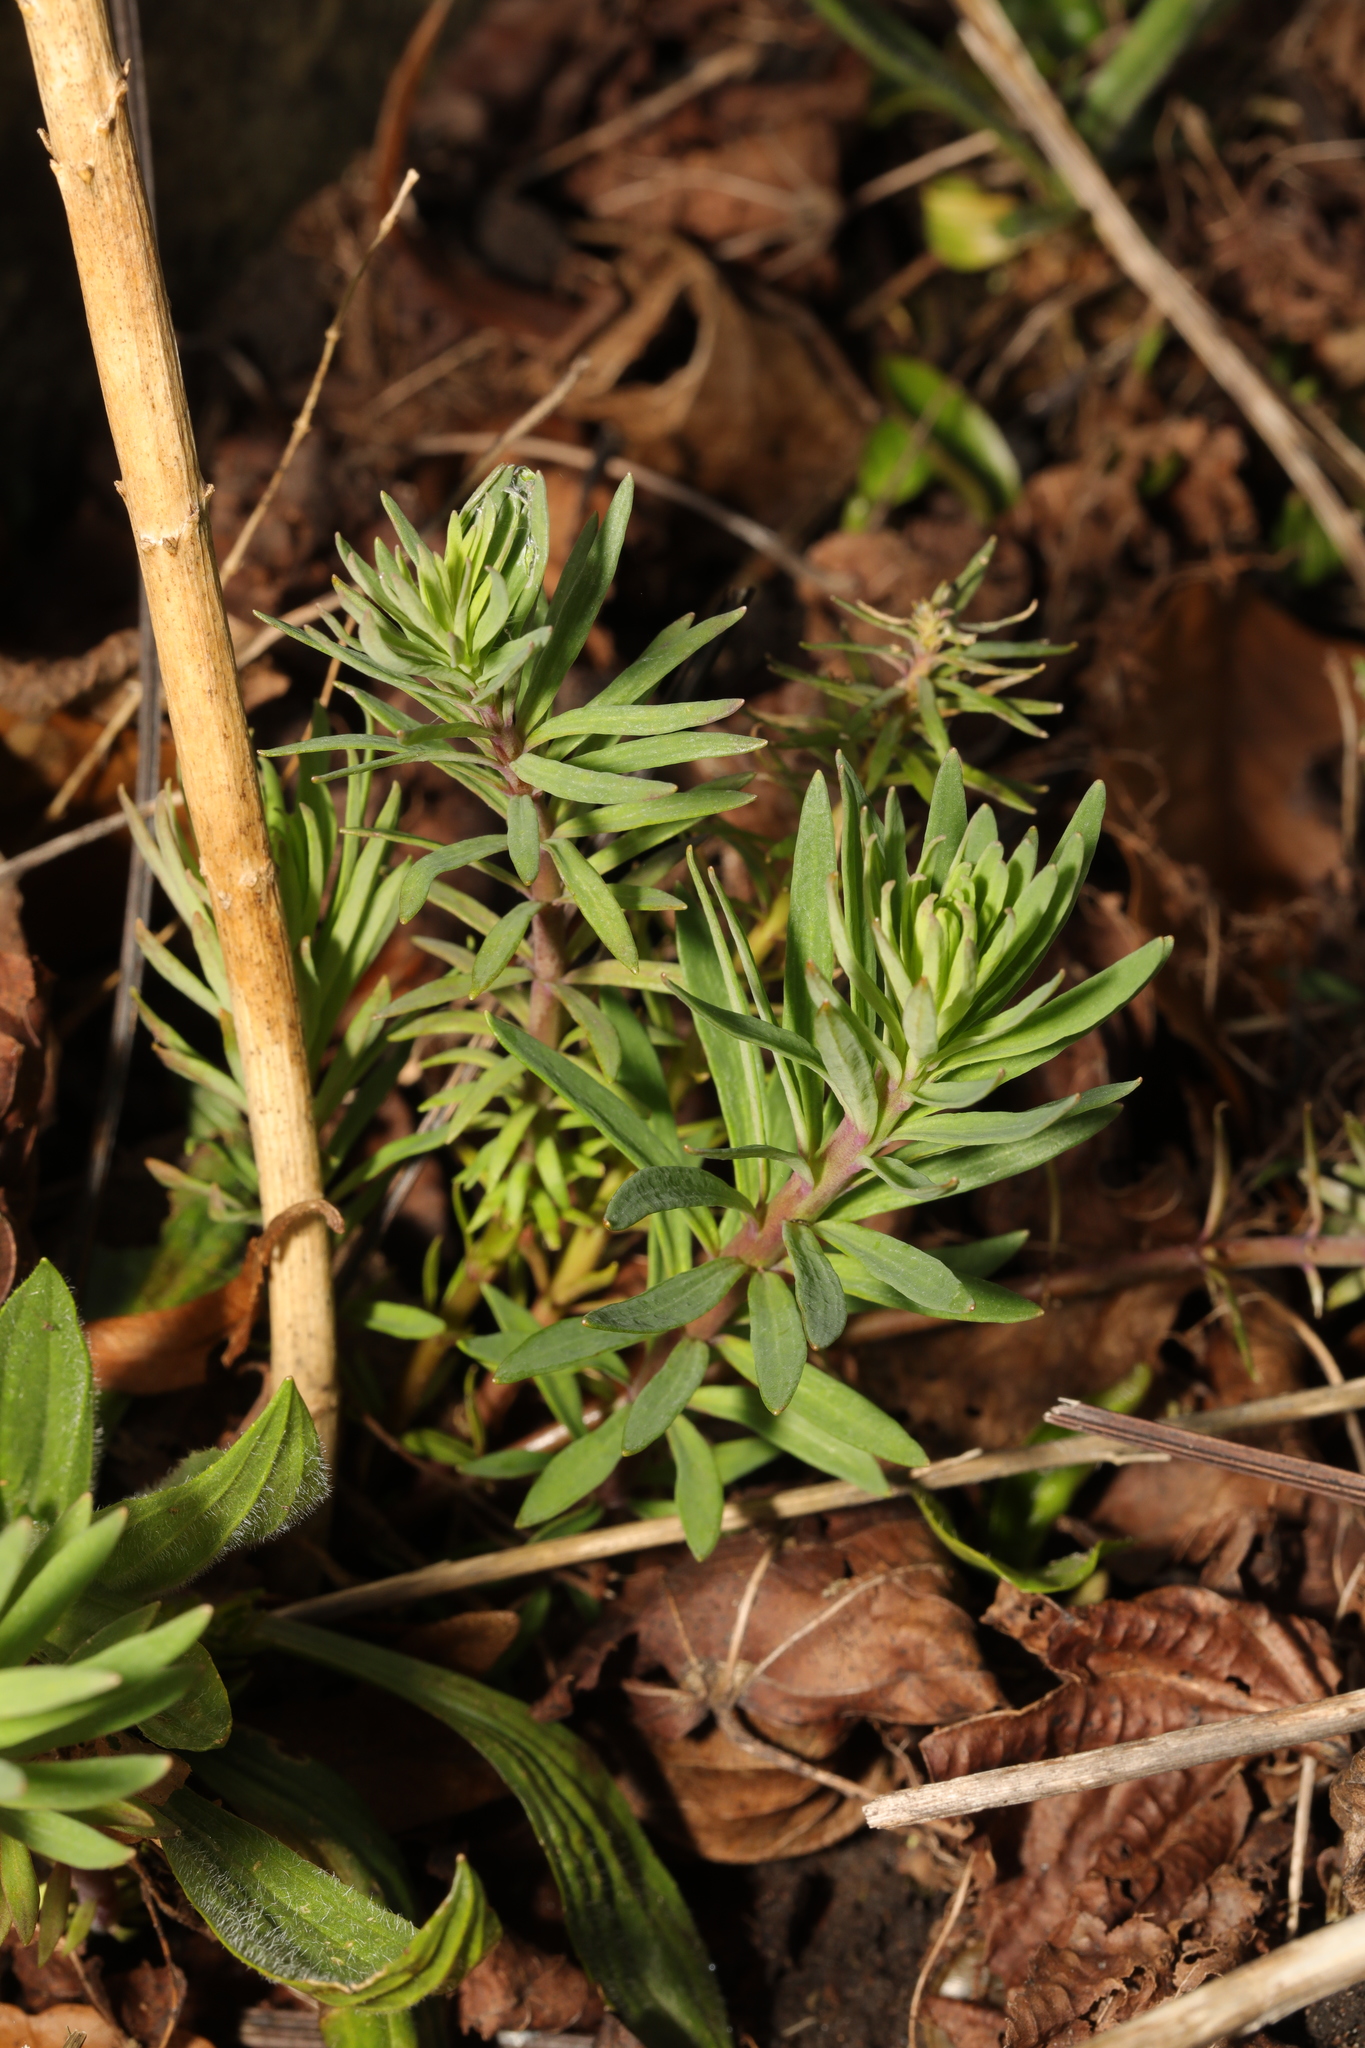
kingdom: Plantae
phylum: Tracheophyta
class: Magnoliopsida
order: Lamiales
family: Plantaginaceae
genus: Linaria
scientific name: Linaria purpurea
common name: Purple toadflax
